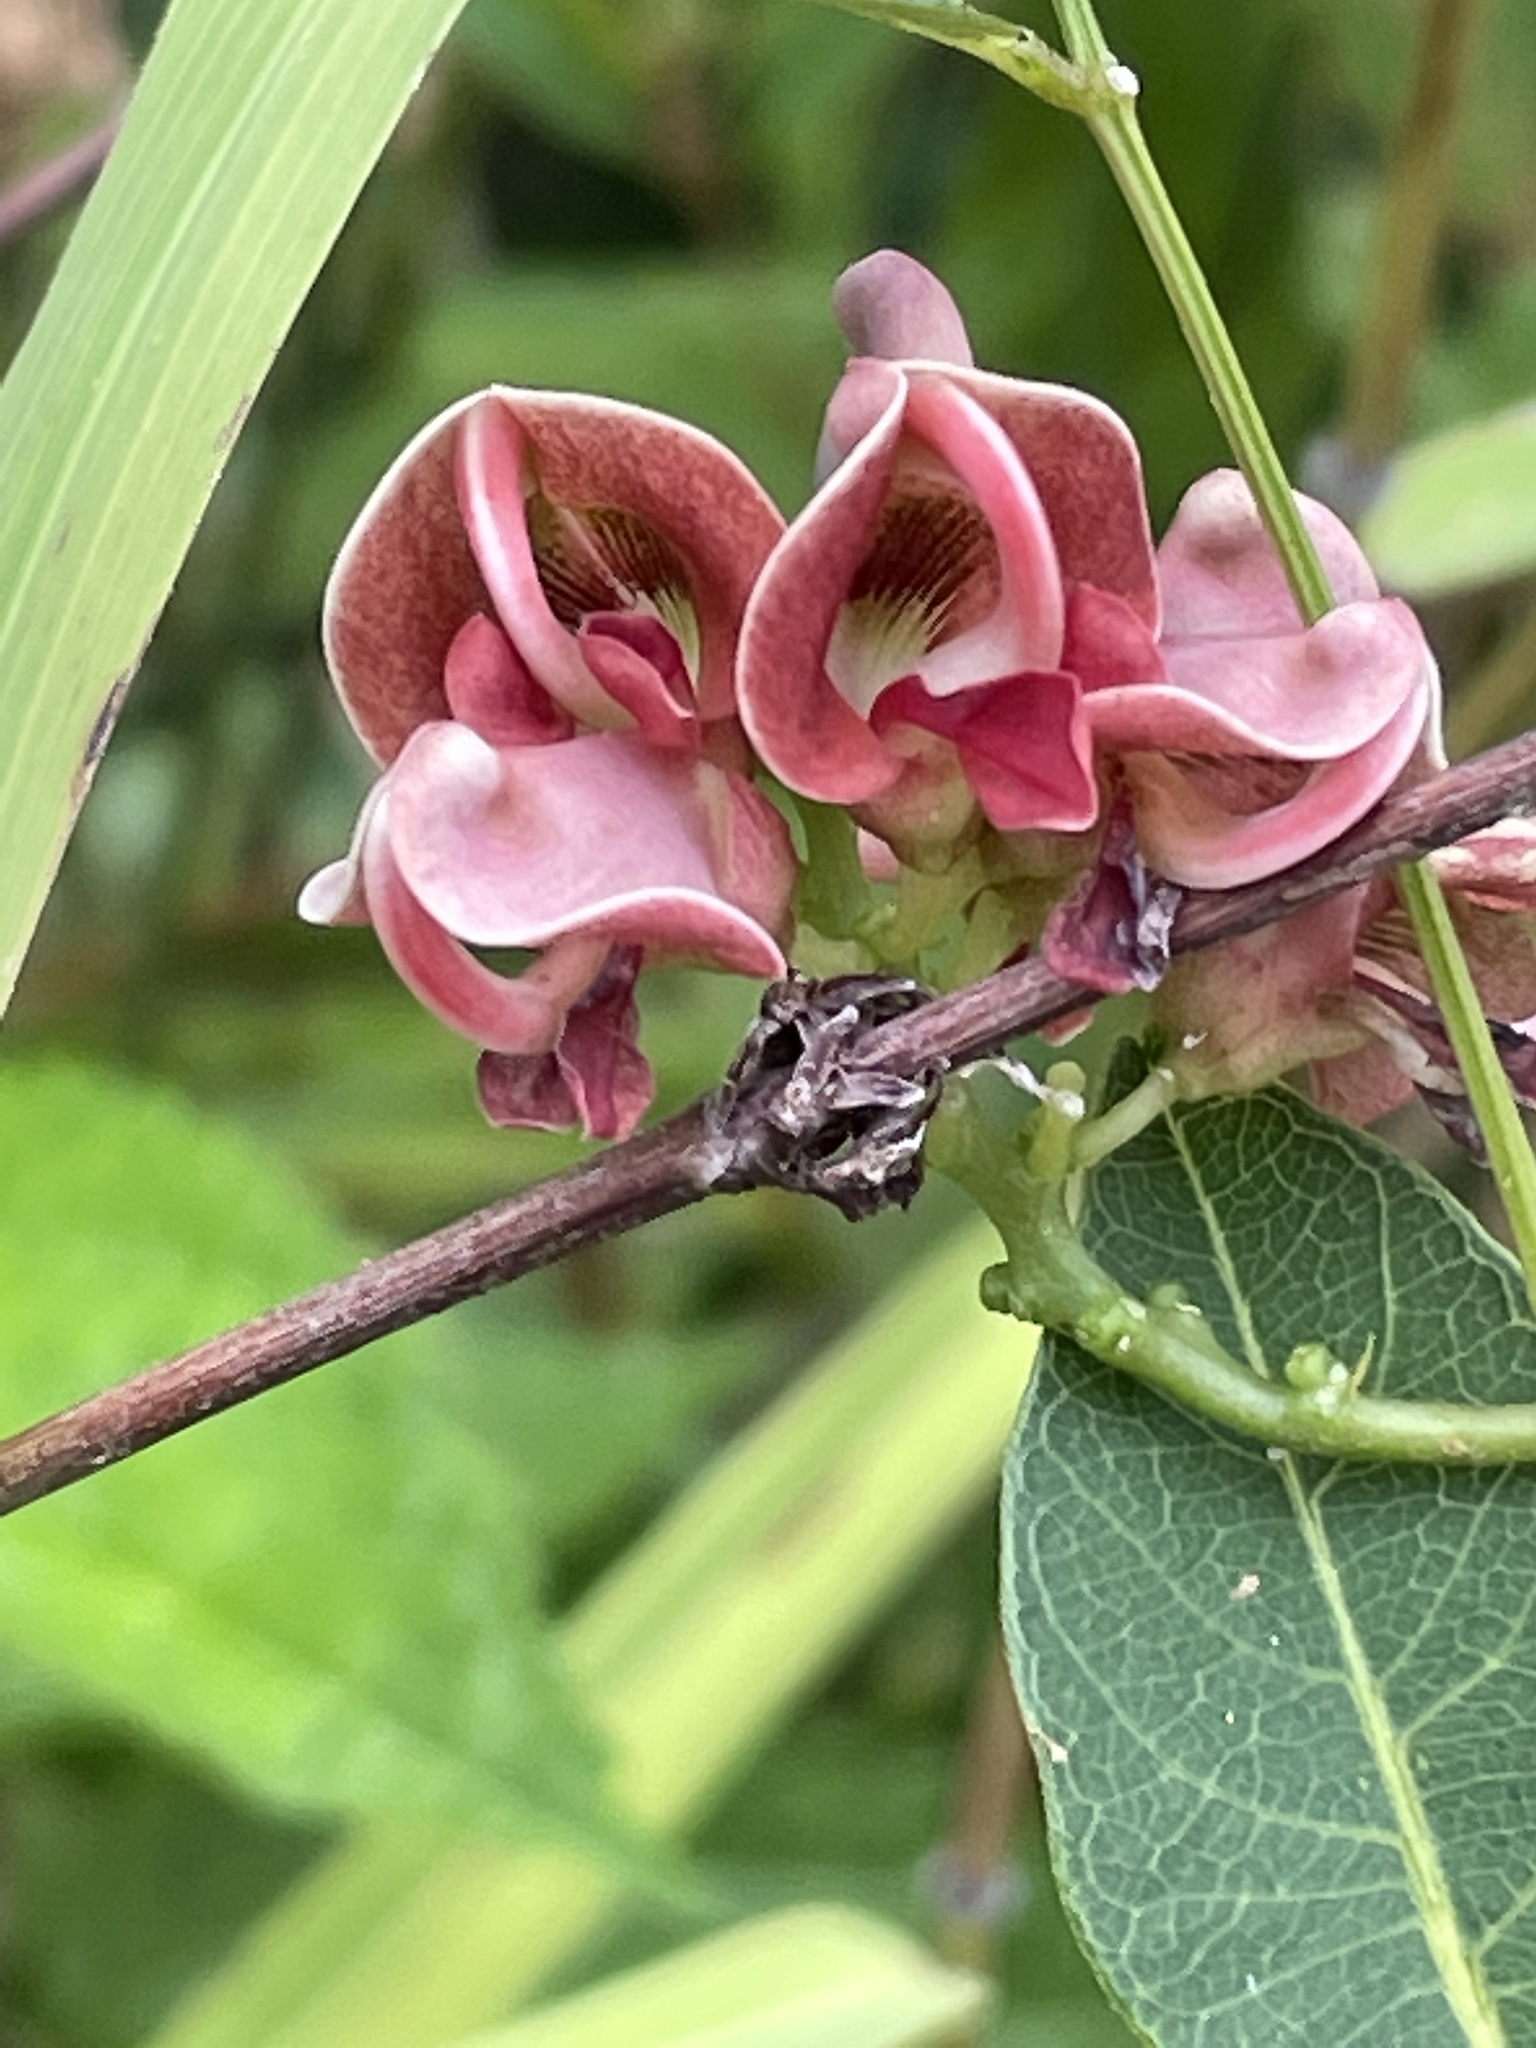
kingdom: Plantae
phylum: Tracheophyta
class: Magnoliopsida
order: Fabales
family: Fabaceae
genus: Apios
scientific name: Apios americana
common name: American potato-bean
